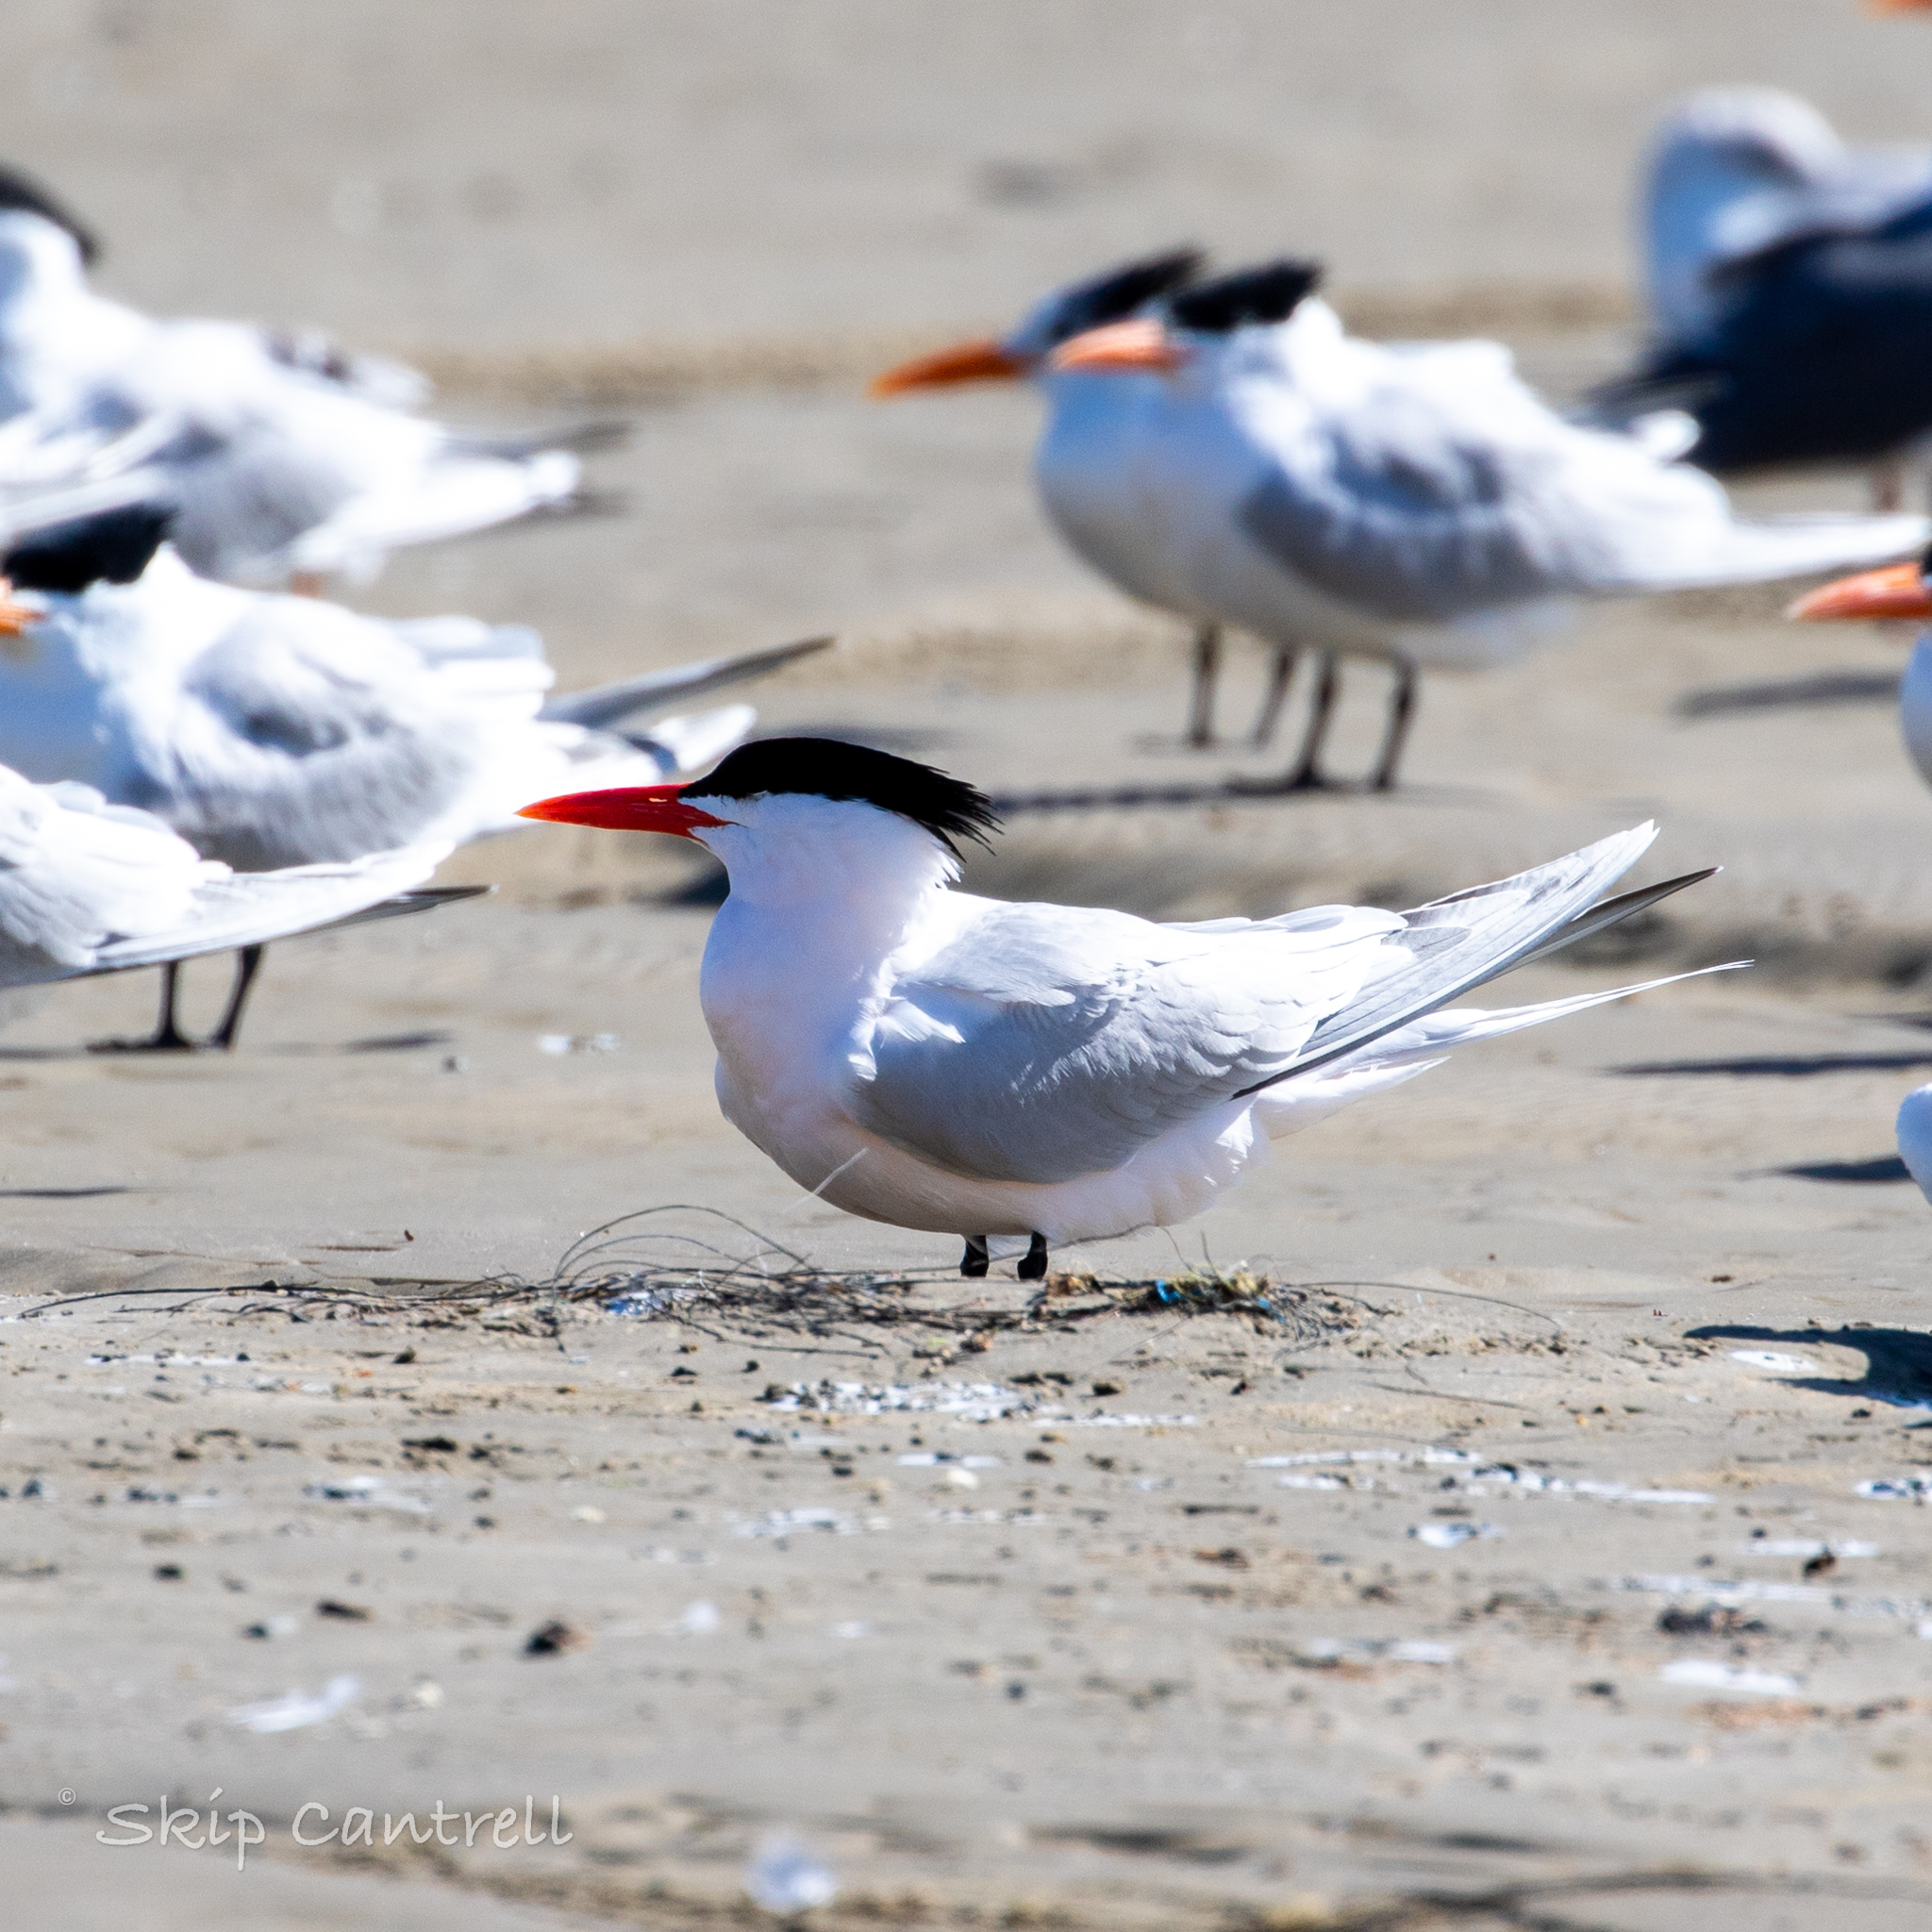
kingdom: Animalia
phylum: Chordata
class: Aves
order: Charadriiformes
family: Laridae
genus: Thalasseus
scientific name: Thalasseus maximus
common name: Royal tern
